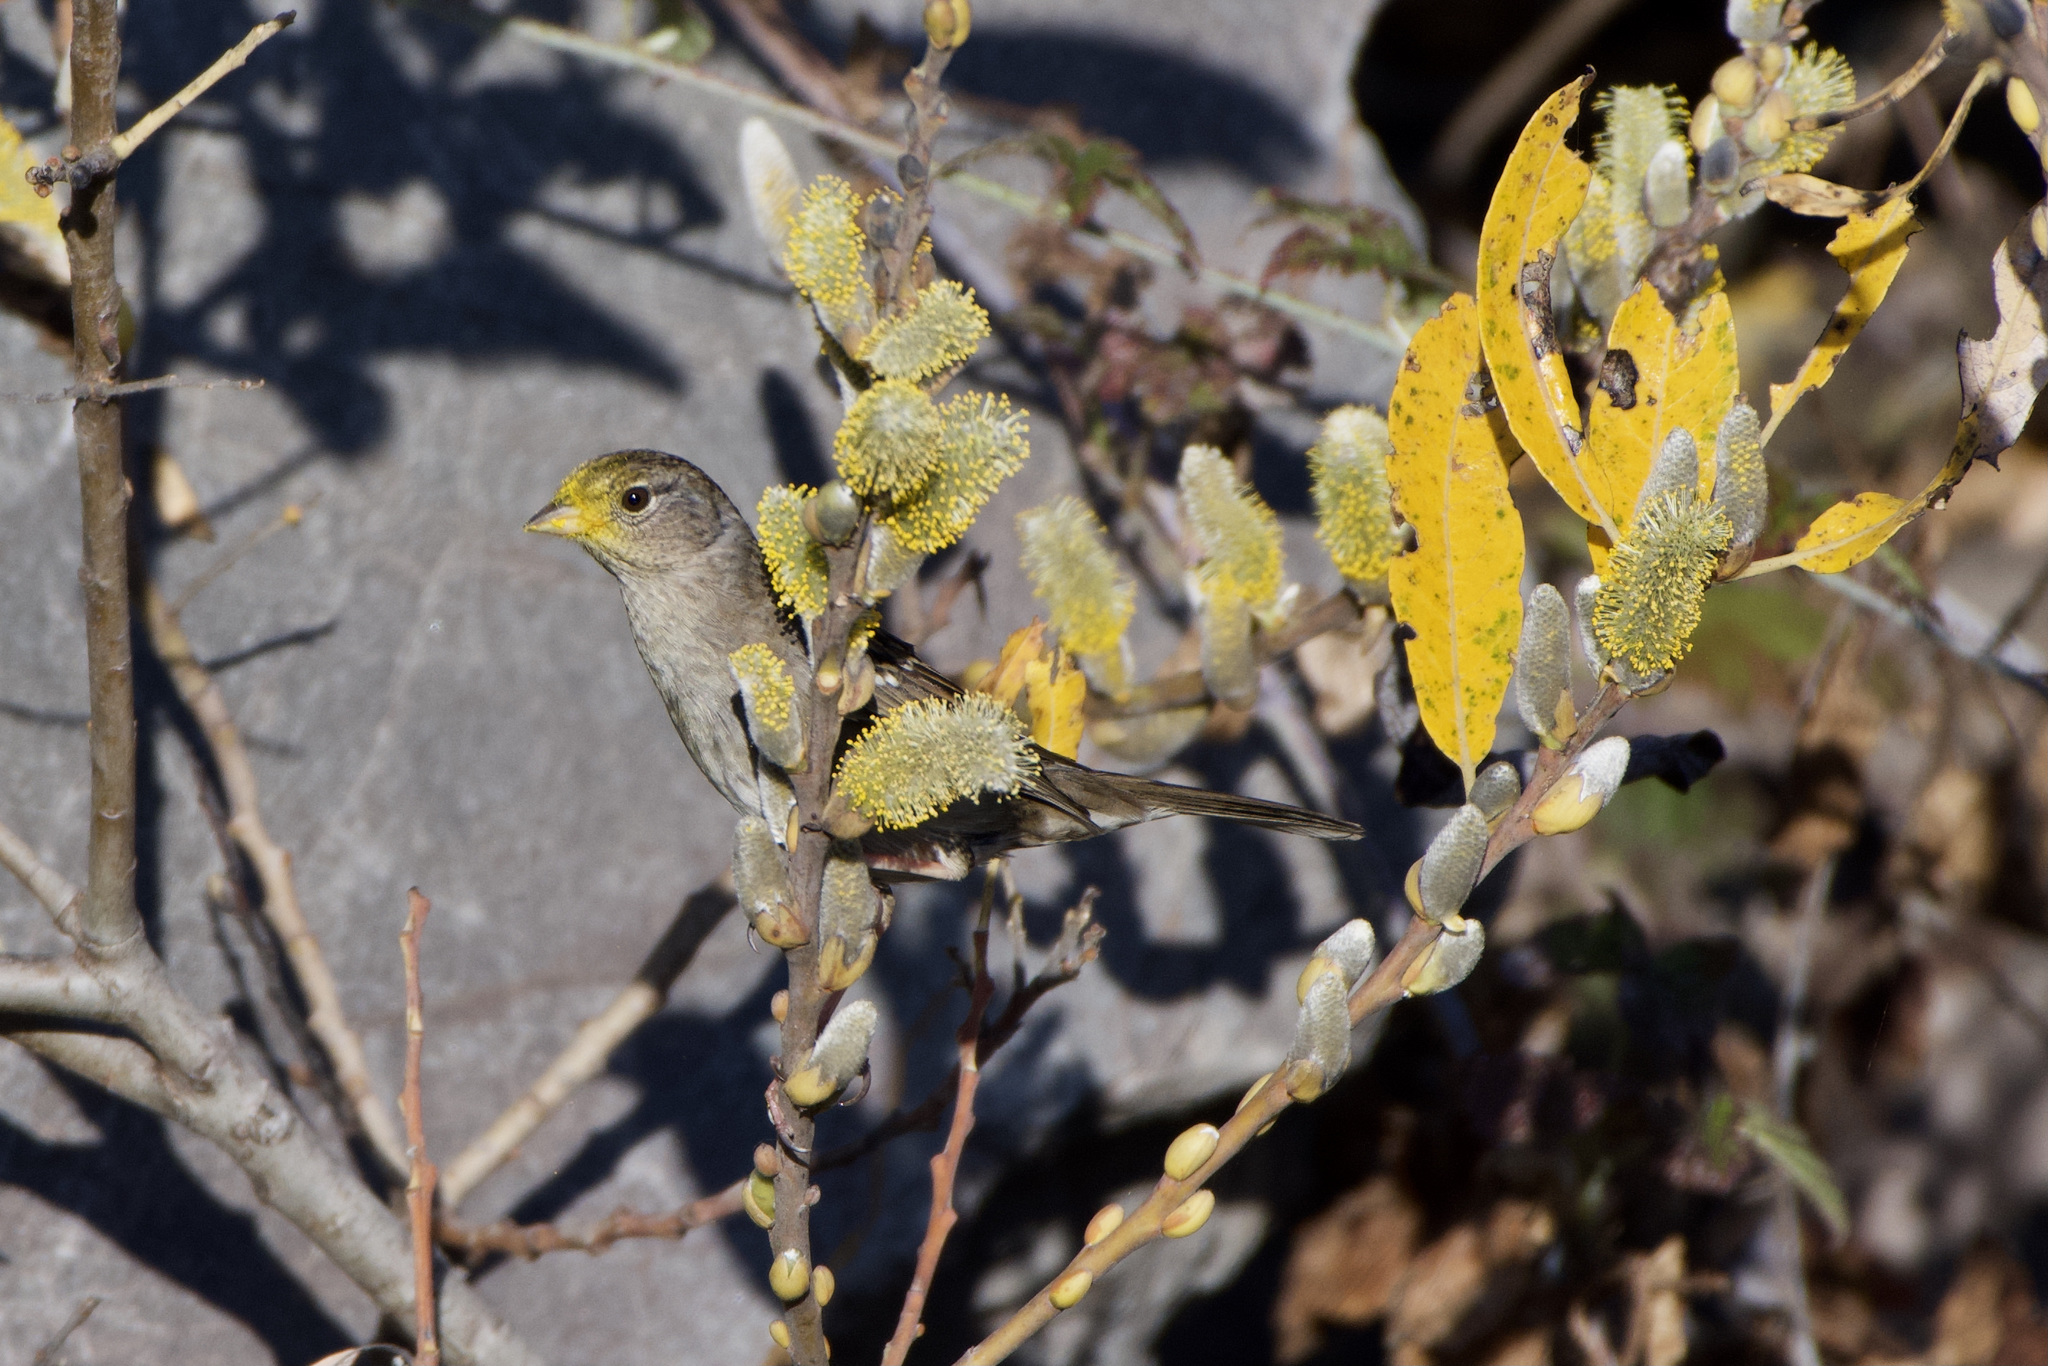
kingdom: Animalia
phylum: Chordata
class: Aves
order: Passeriformes
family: Passerellidae
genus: Zonotrichia
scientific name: Zonotrichia atricapilla
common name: Golden-crowned sparrow
